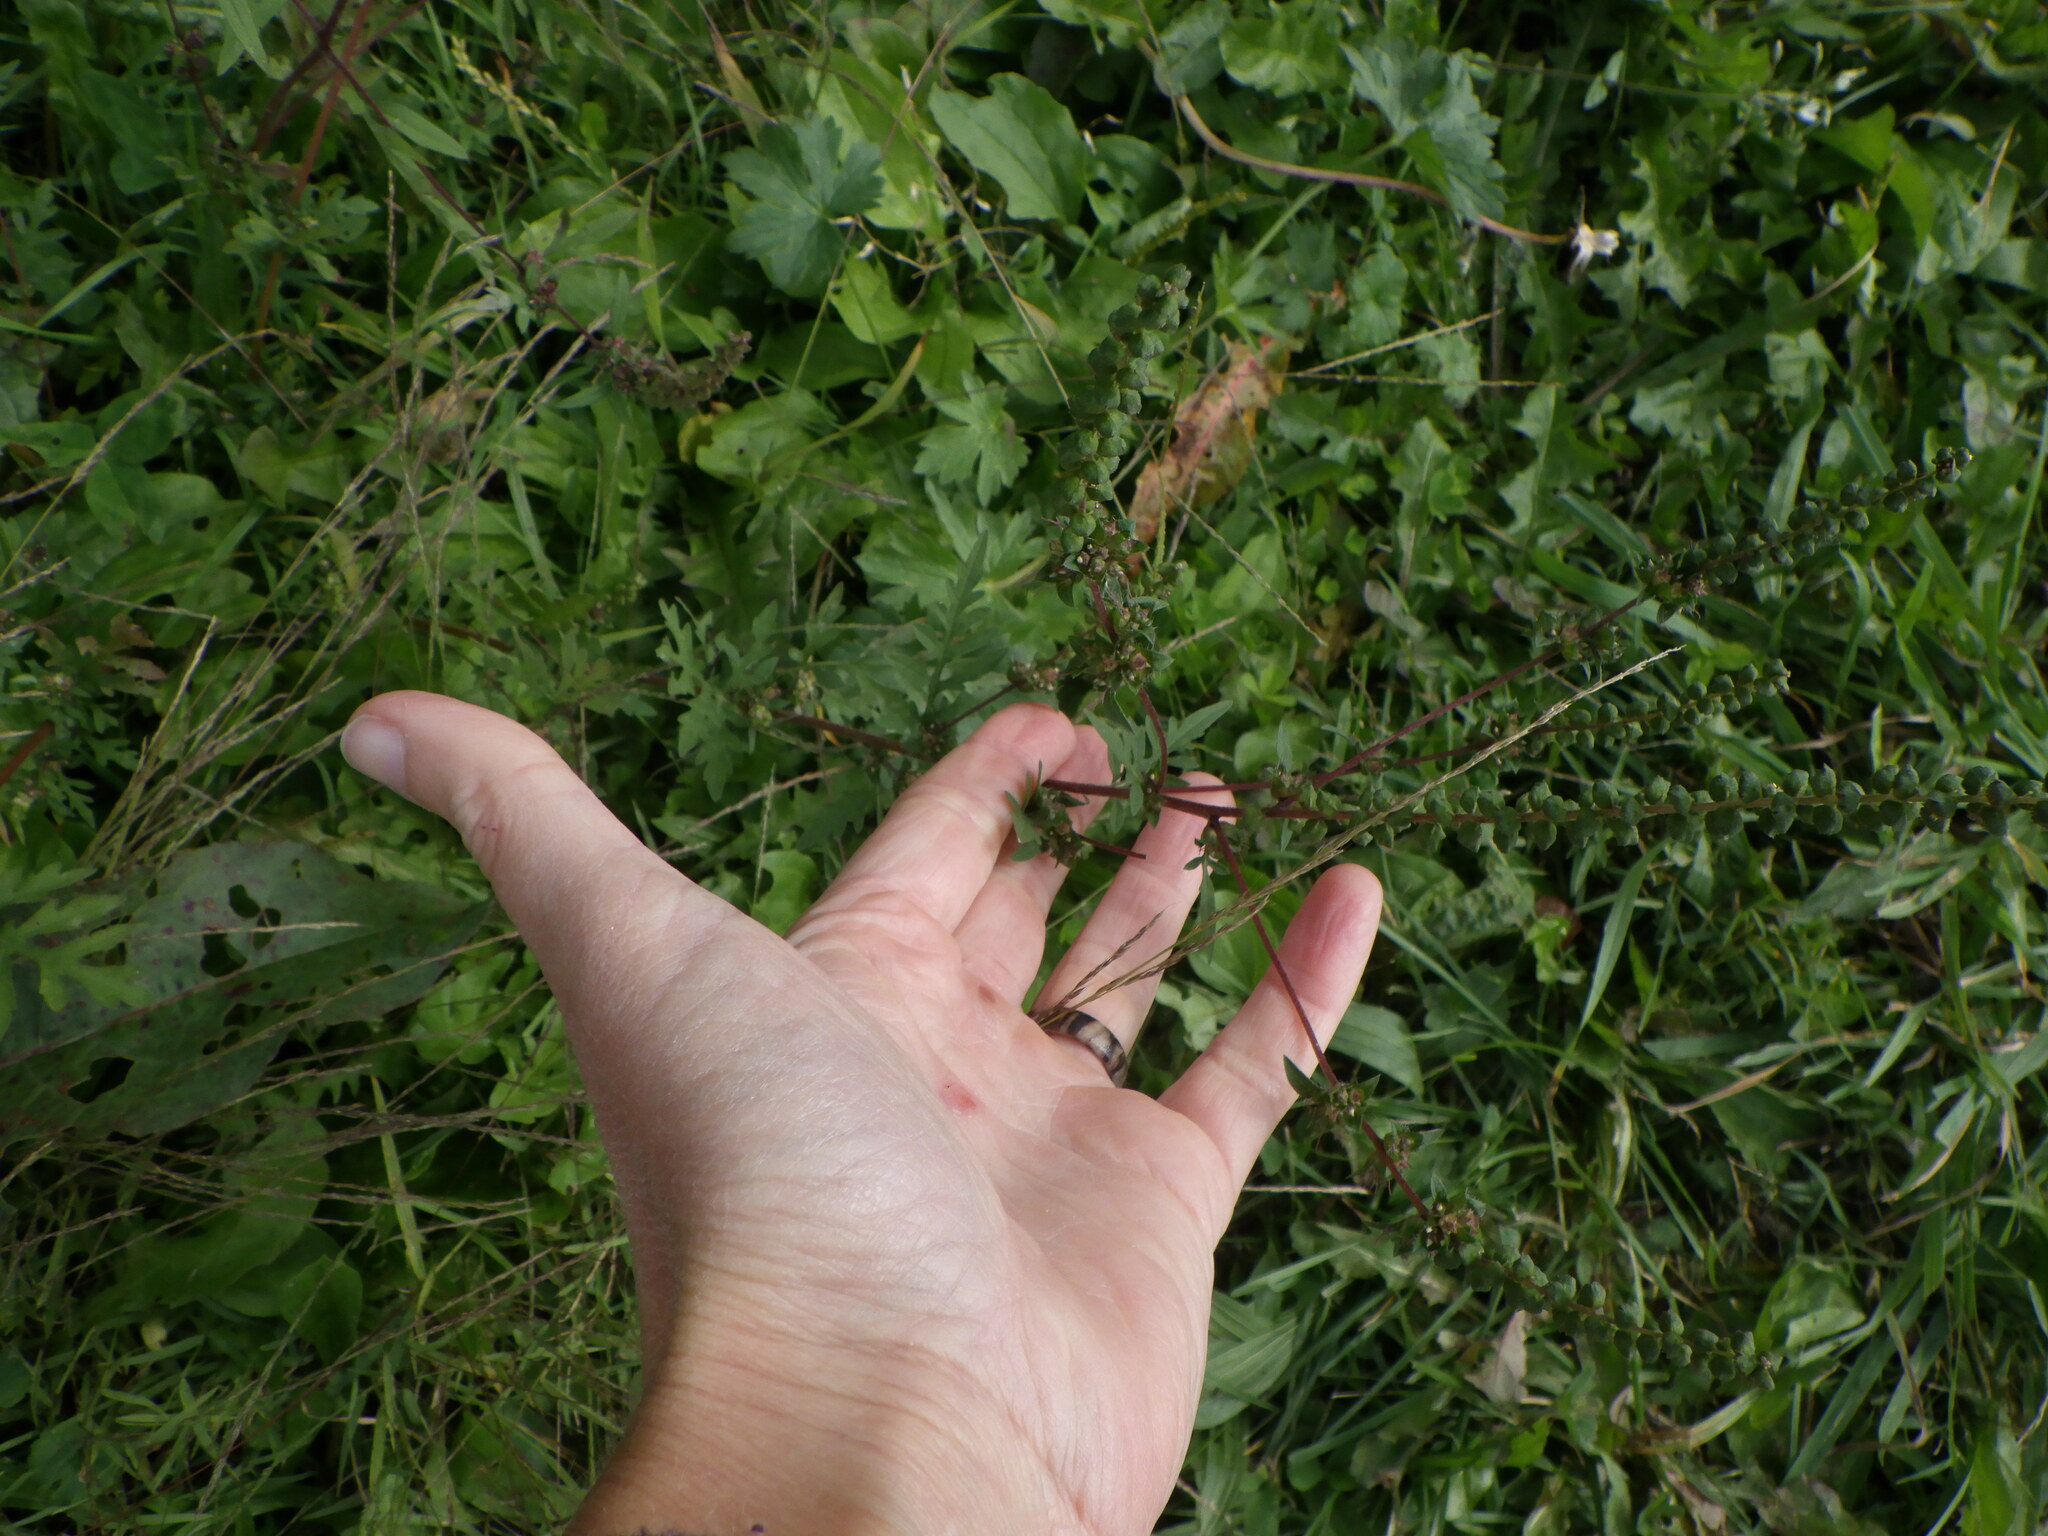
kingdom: Plantae
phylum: Tracheophyta
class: Magnoliopsida
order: Asterales
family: Asteraceae
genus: Ambrosia
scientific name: Ambrosia artemisiifolia
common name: Annual ragweed
